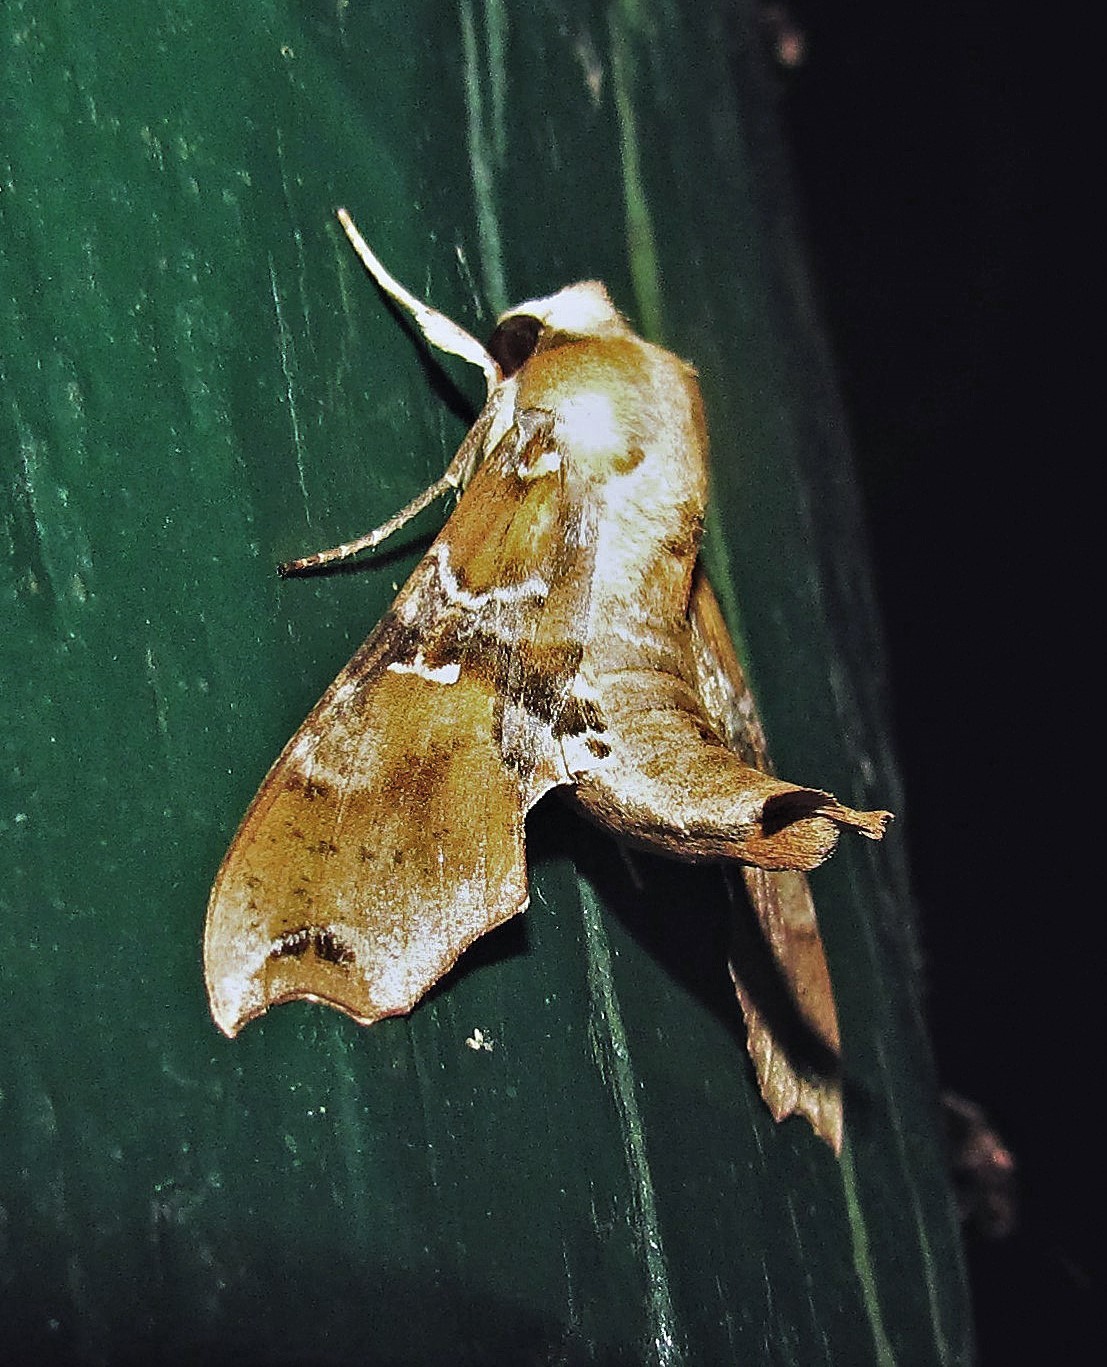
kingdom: Animalia
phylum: Arthropoda
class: Insecta
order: Lepidoptera
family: Sphingidae
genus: Callionima
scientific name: Callionima grisescens
